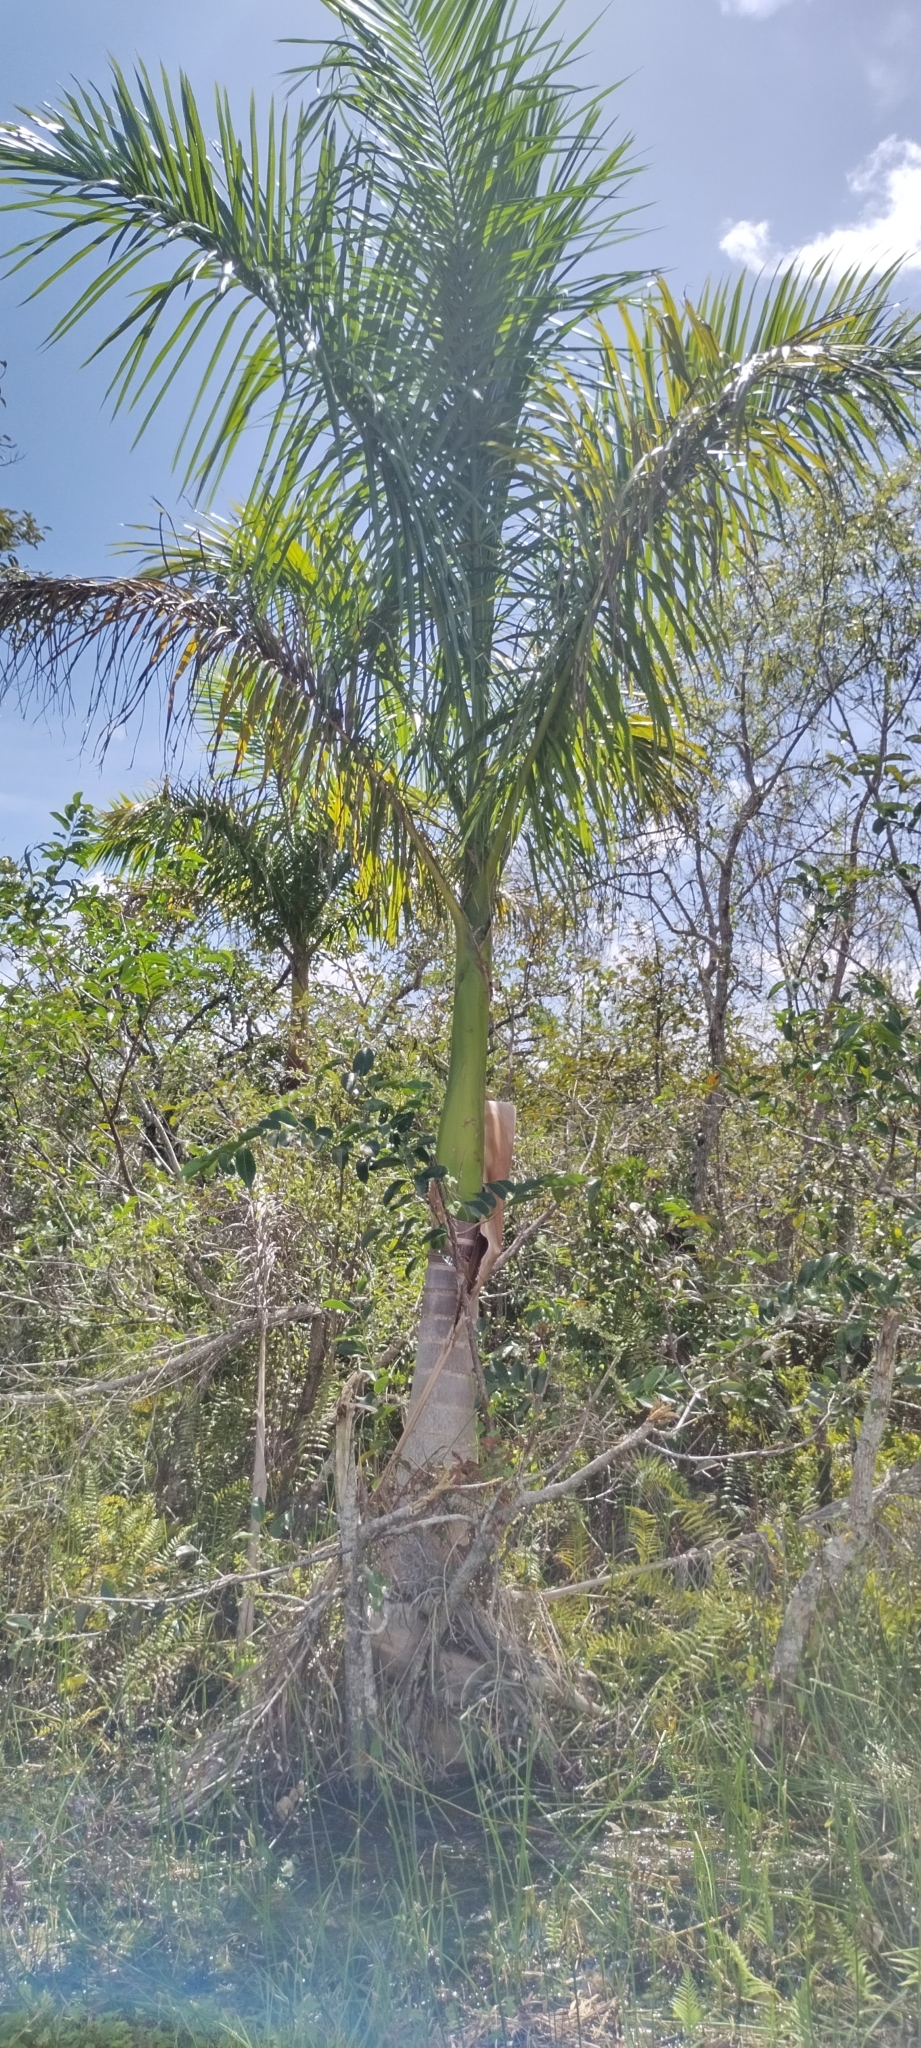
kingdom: Plantae
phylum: Tracheophyta
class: Liliopsida
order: Arecales
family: Arecaceae
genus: Roystonea
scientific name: Roystonea regia
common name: Florida royal palm
